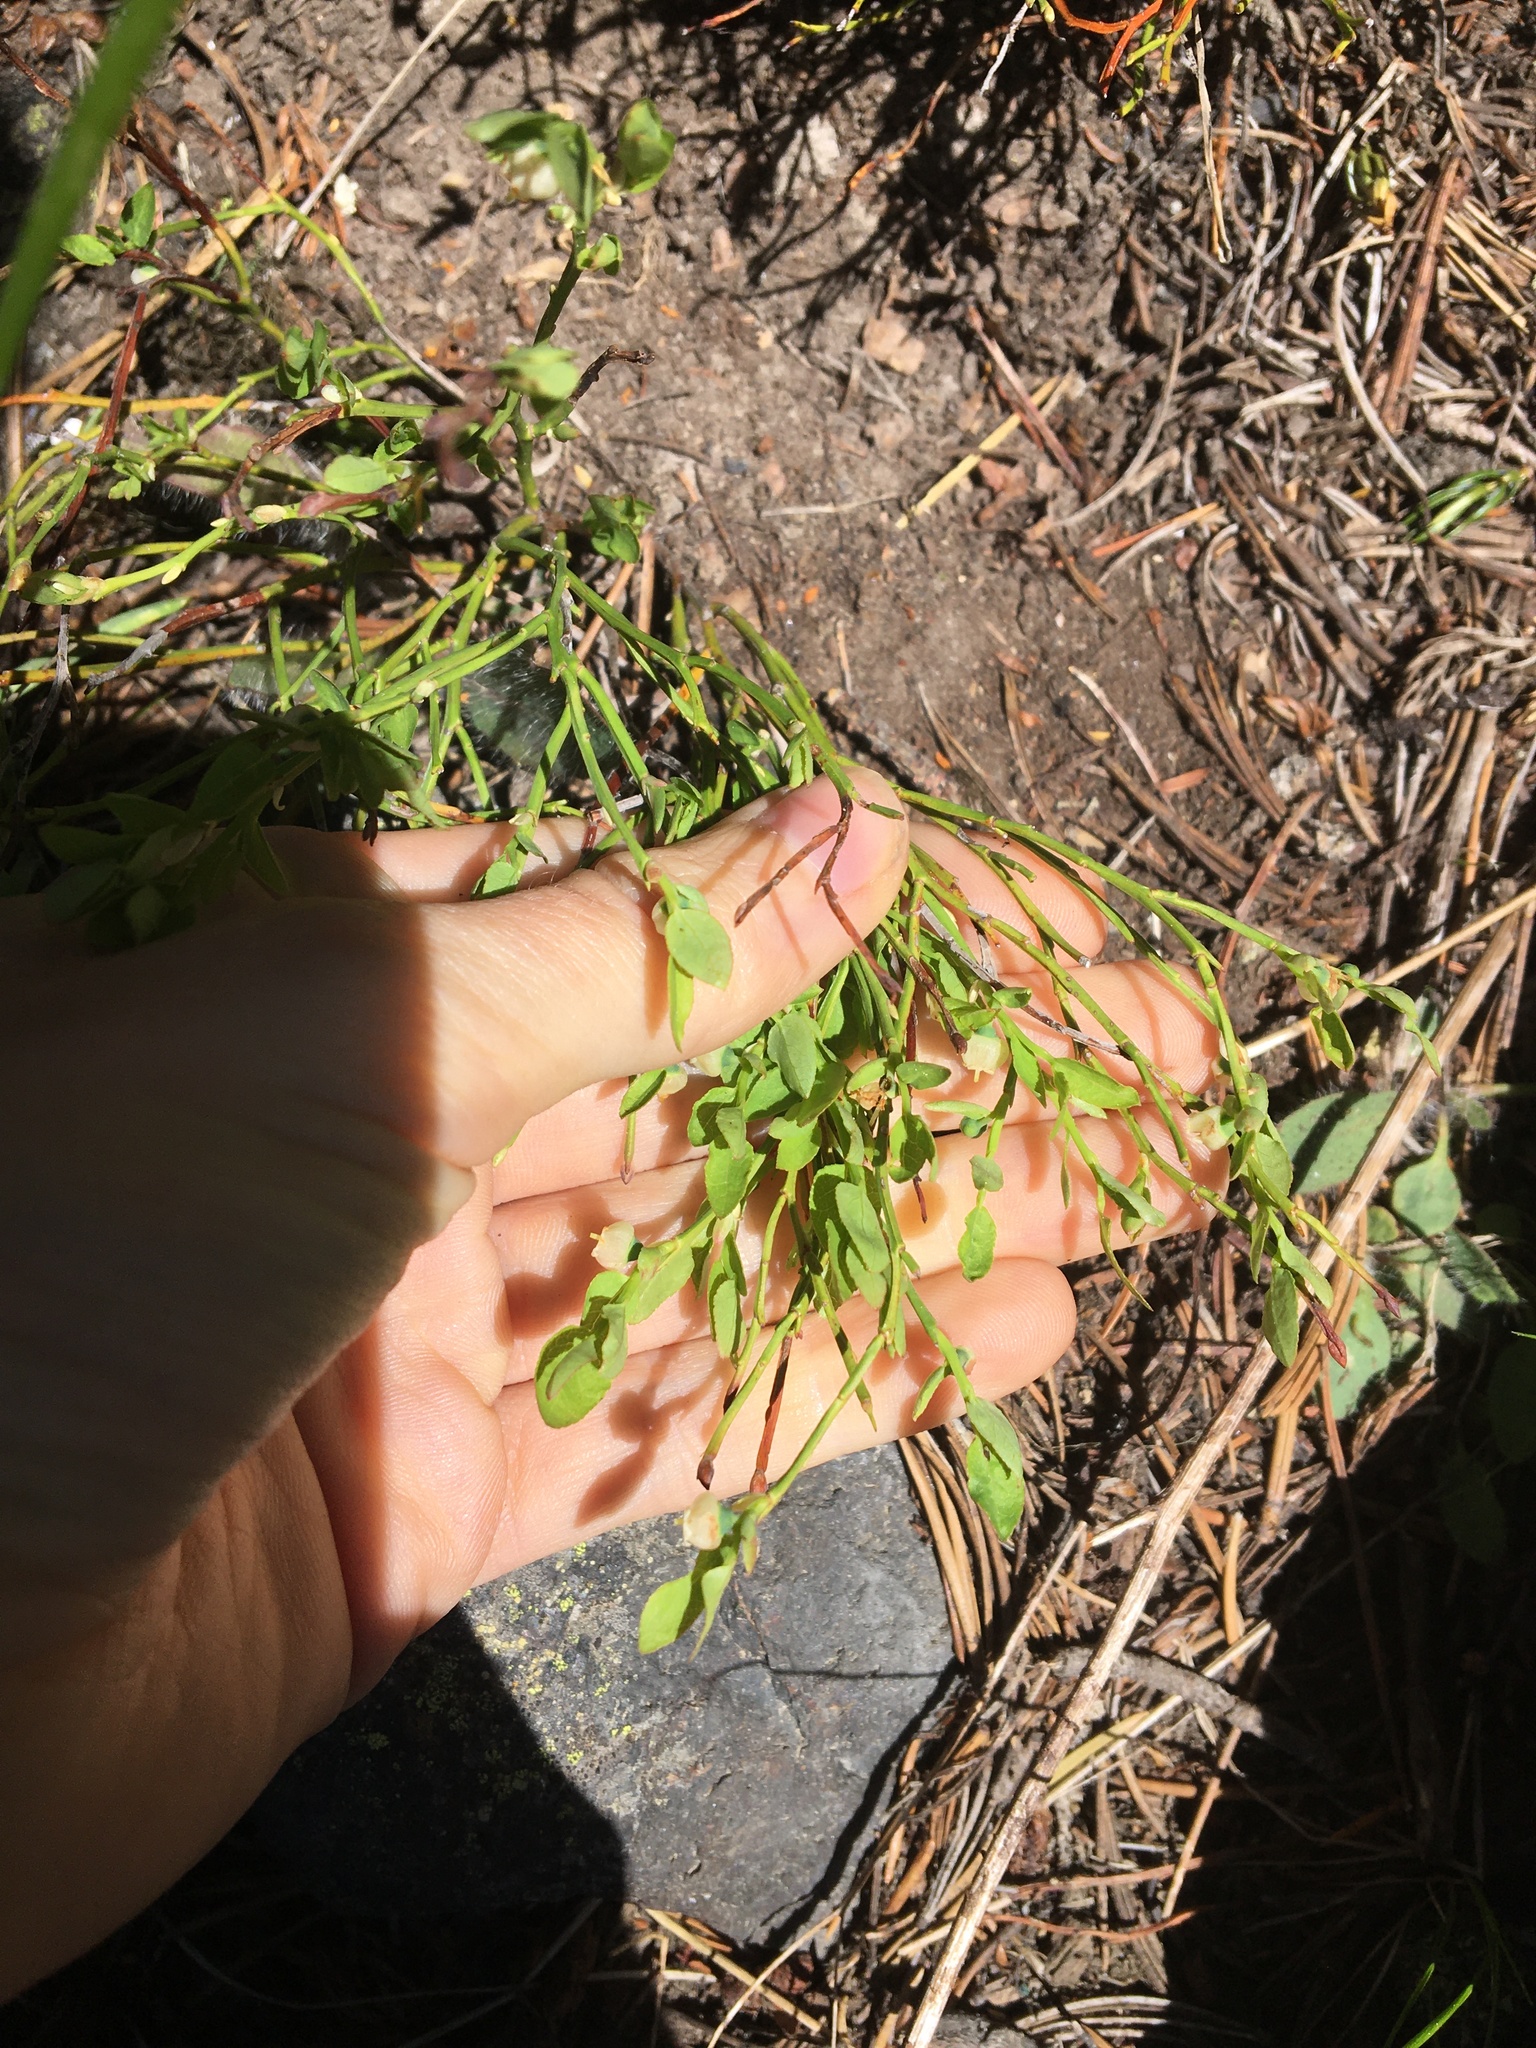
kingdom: Plantae
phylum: Tracheophyta
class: Magnoliopsida
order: Ericales
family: Ericaceae
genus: Vaccinium
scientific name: Vaccinium scoparium
